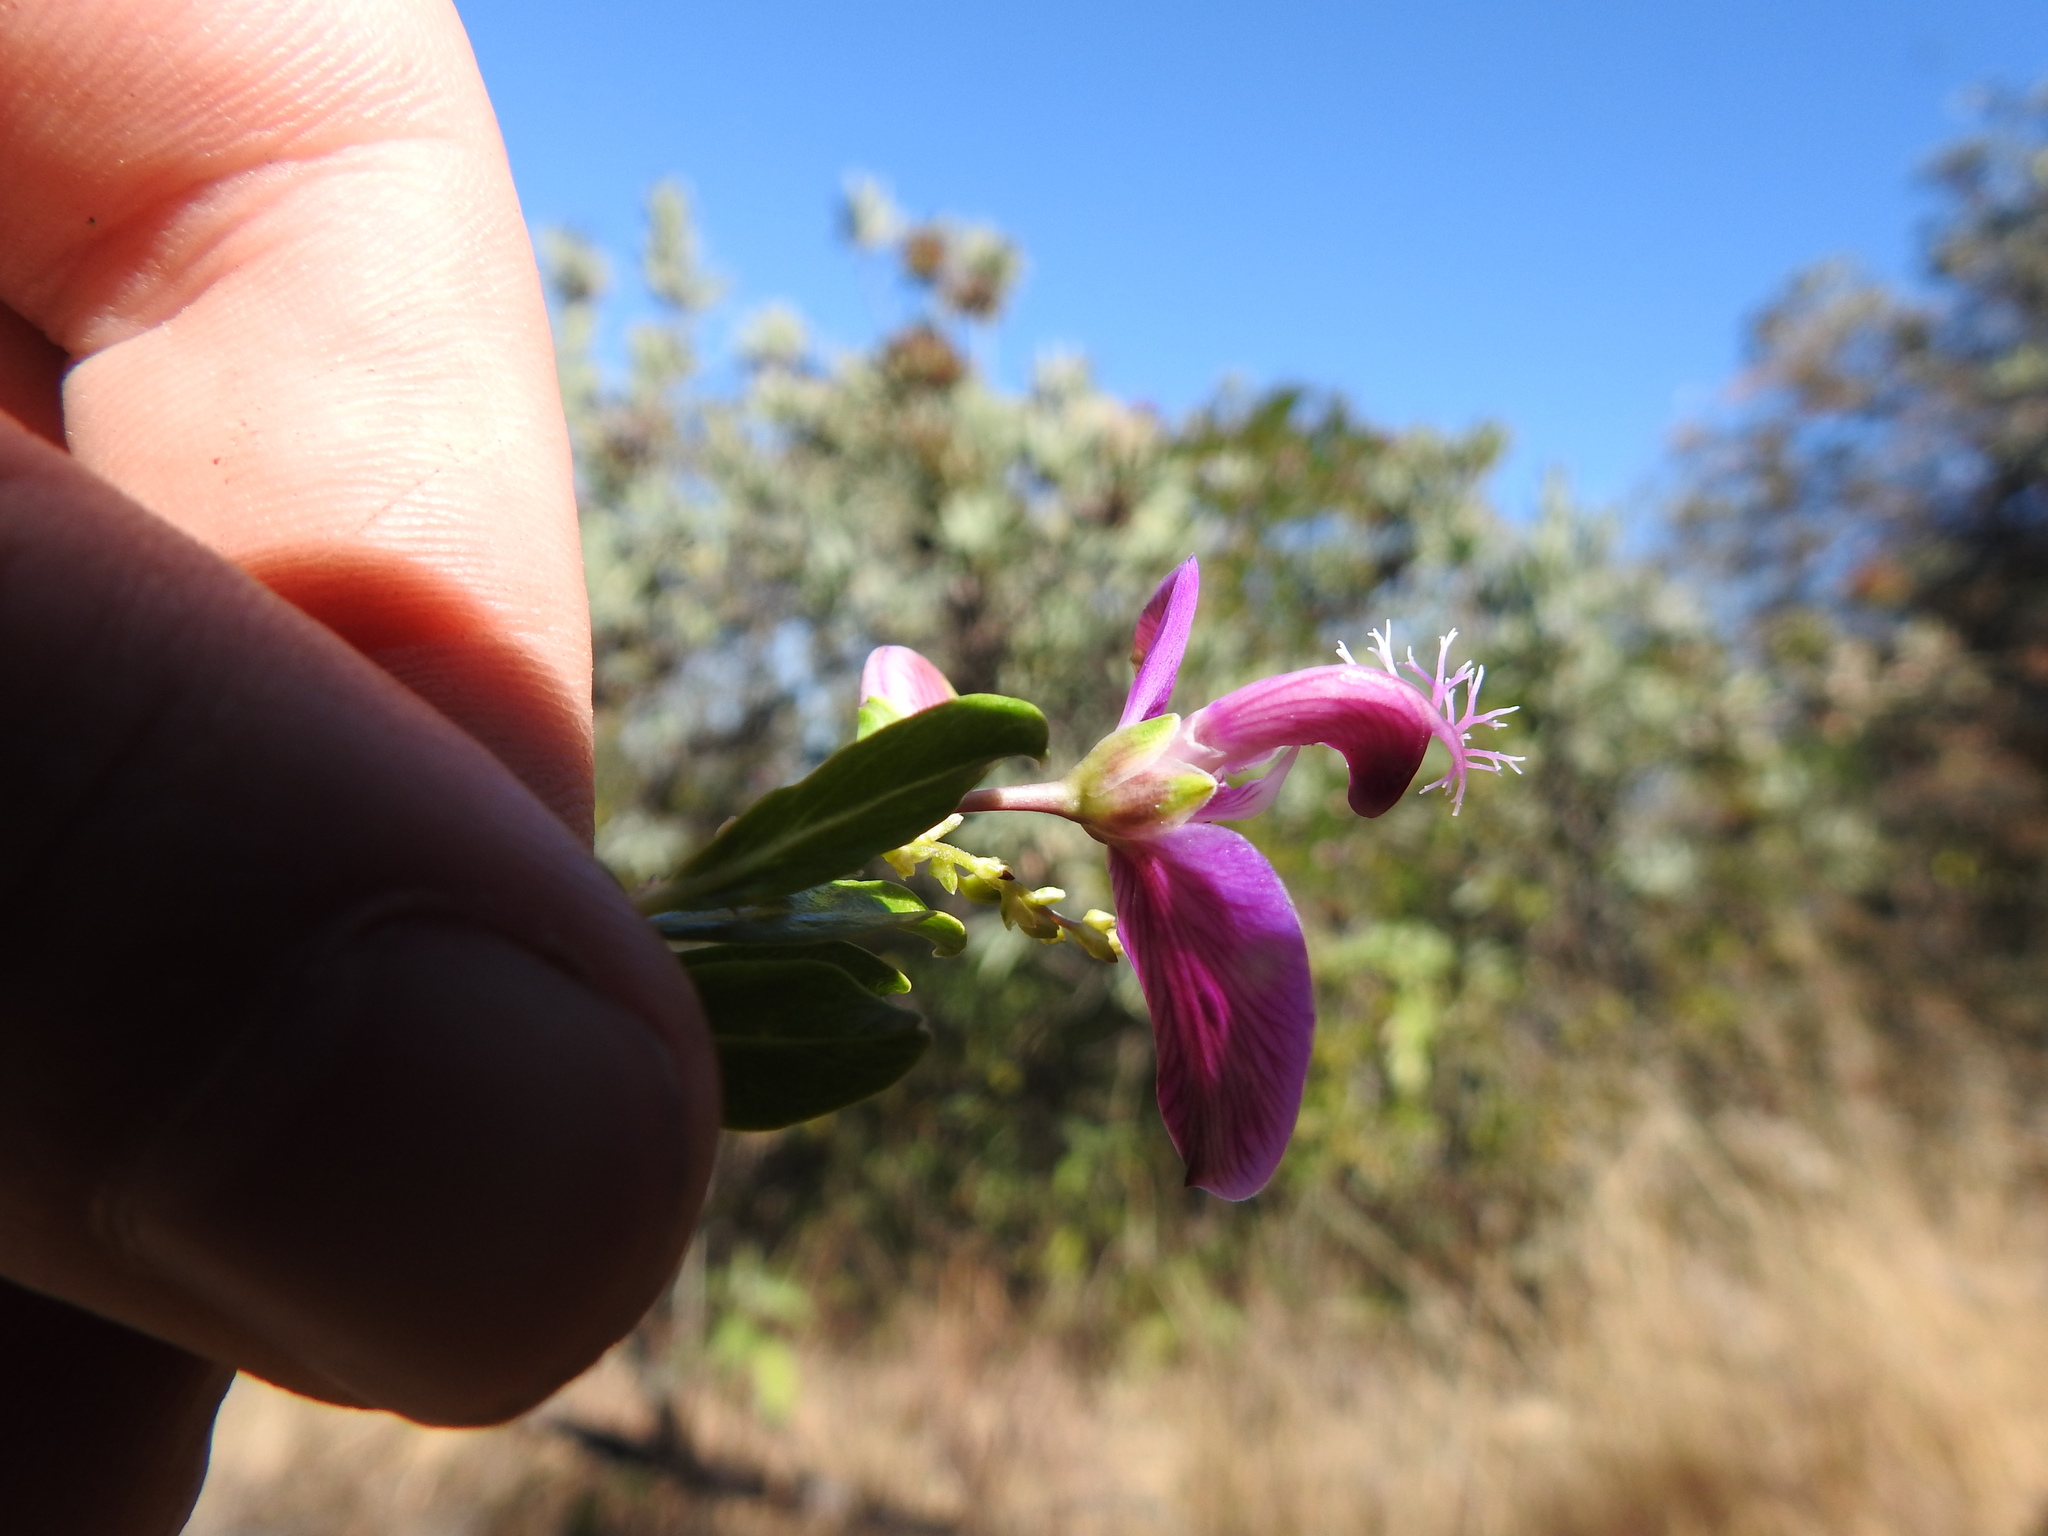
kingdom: Plantae
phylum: Tracheophyta
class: Magnoliopsida
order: Fabales
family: Polygalaceae
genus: Polygala
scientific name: Polygala myrtifolia
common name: Myrtle-leaf milkwort
